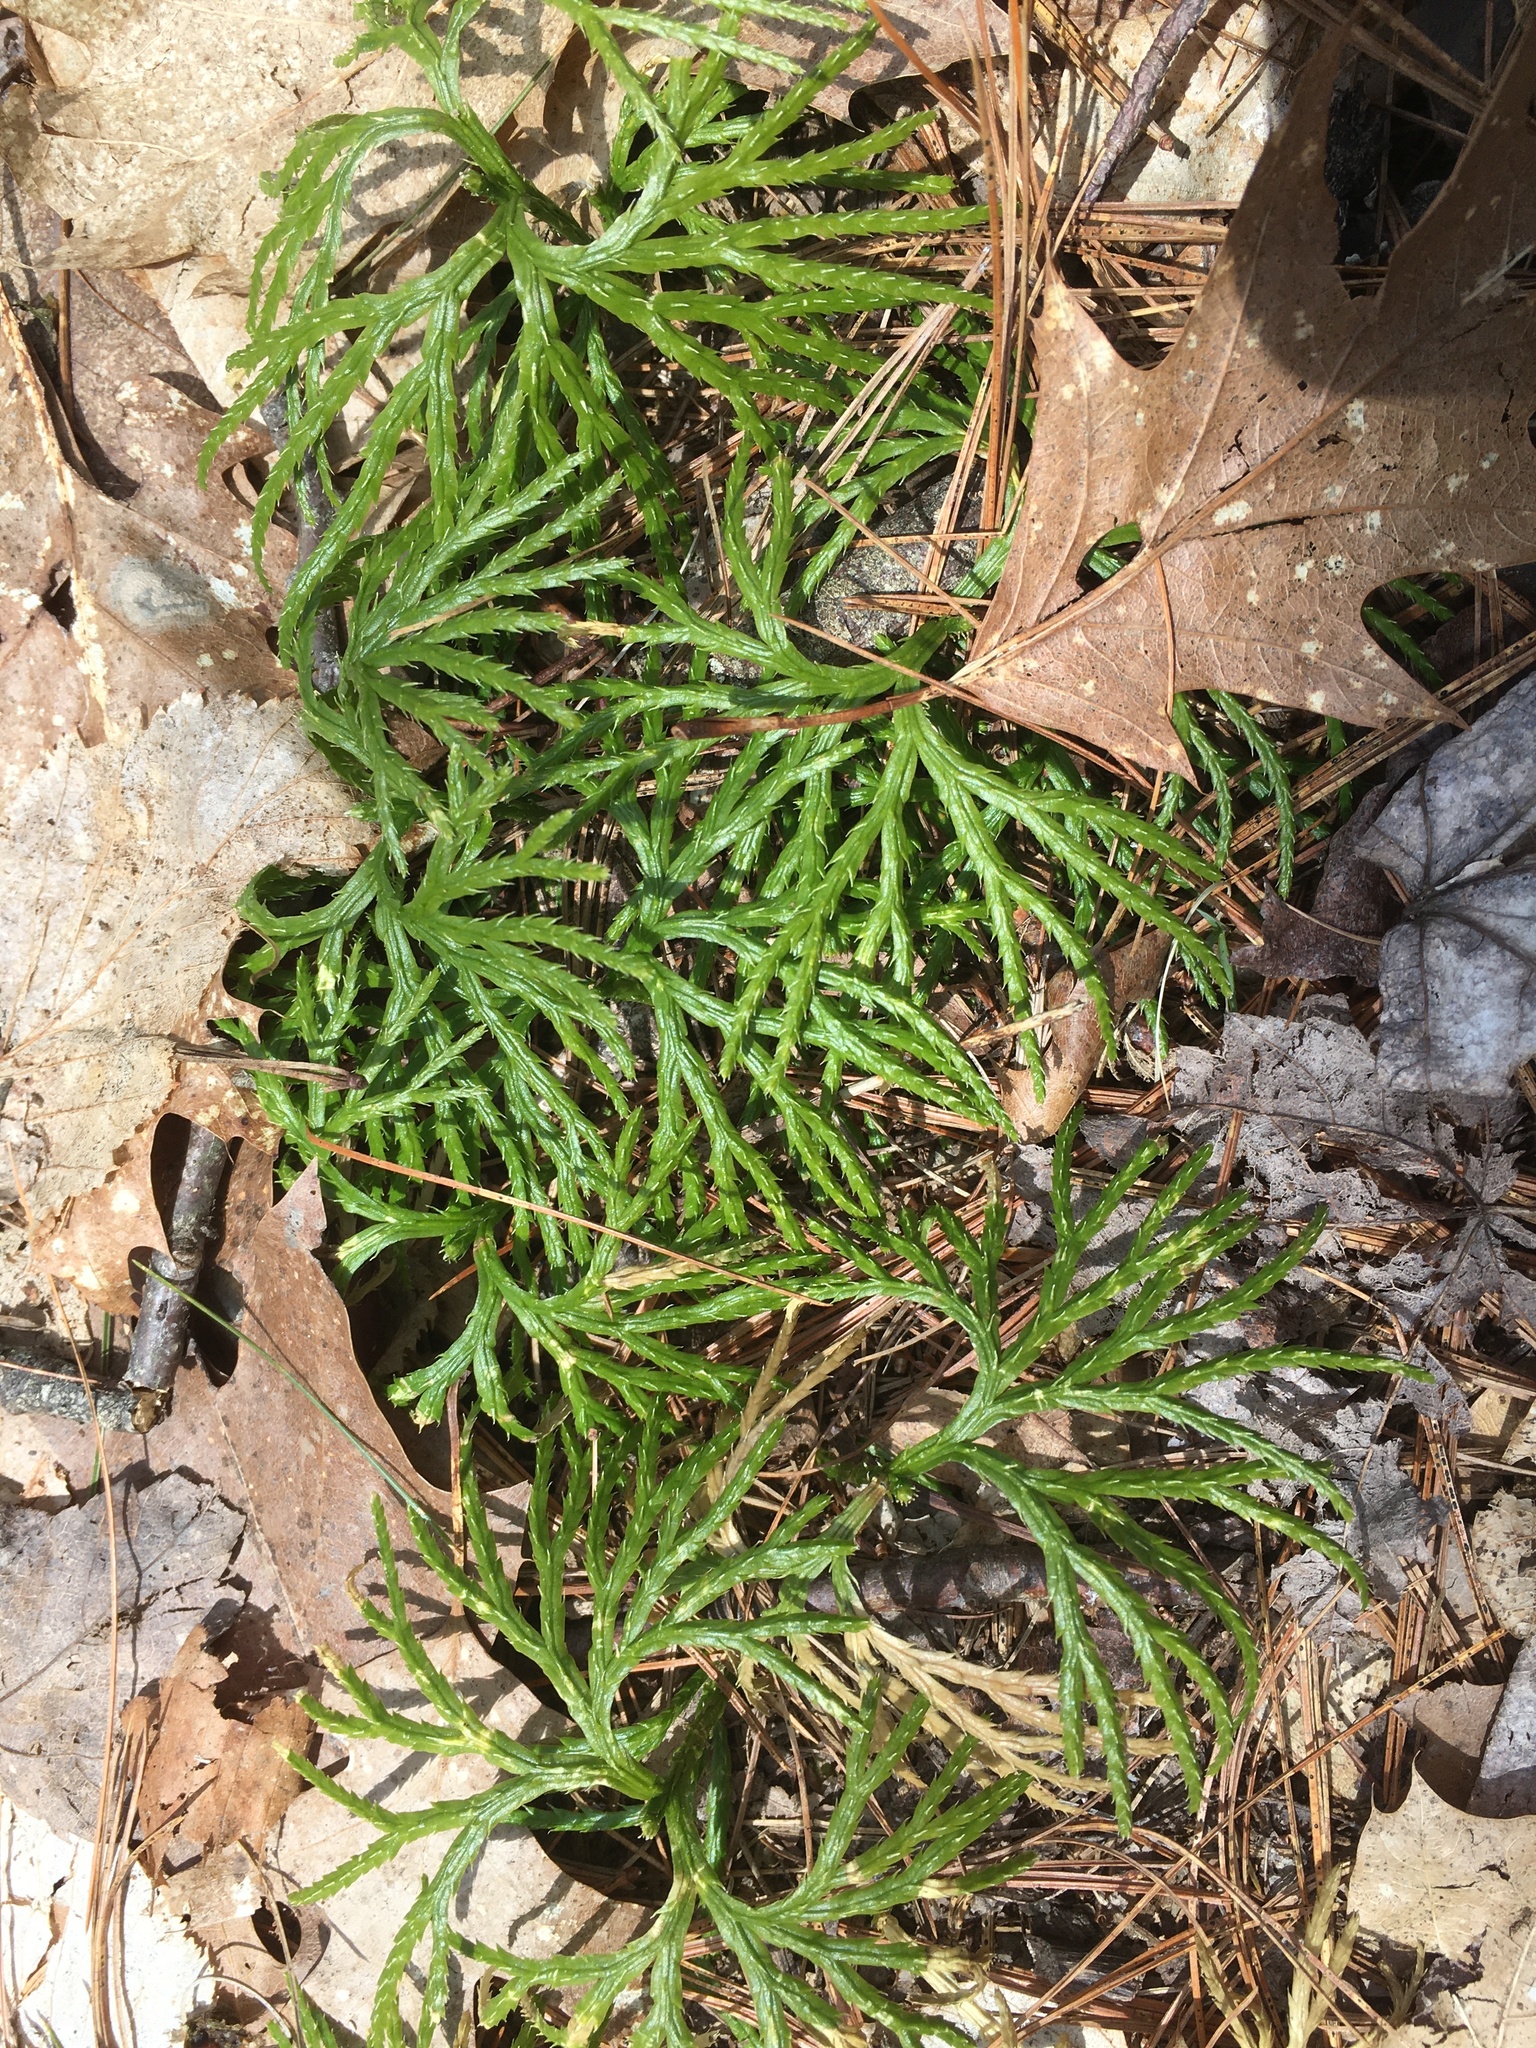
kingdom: Plantae
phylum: Tracheophyta
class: Lycopodiopsida
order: Lycopodiales
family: Lycopodiaceae
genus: Diphasiastrum
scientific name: Diphasiastrum digitatum
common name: Southern running-pine
